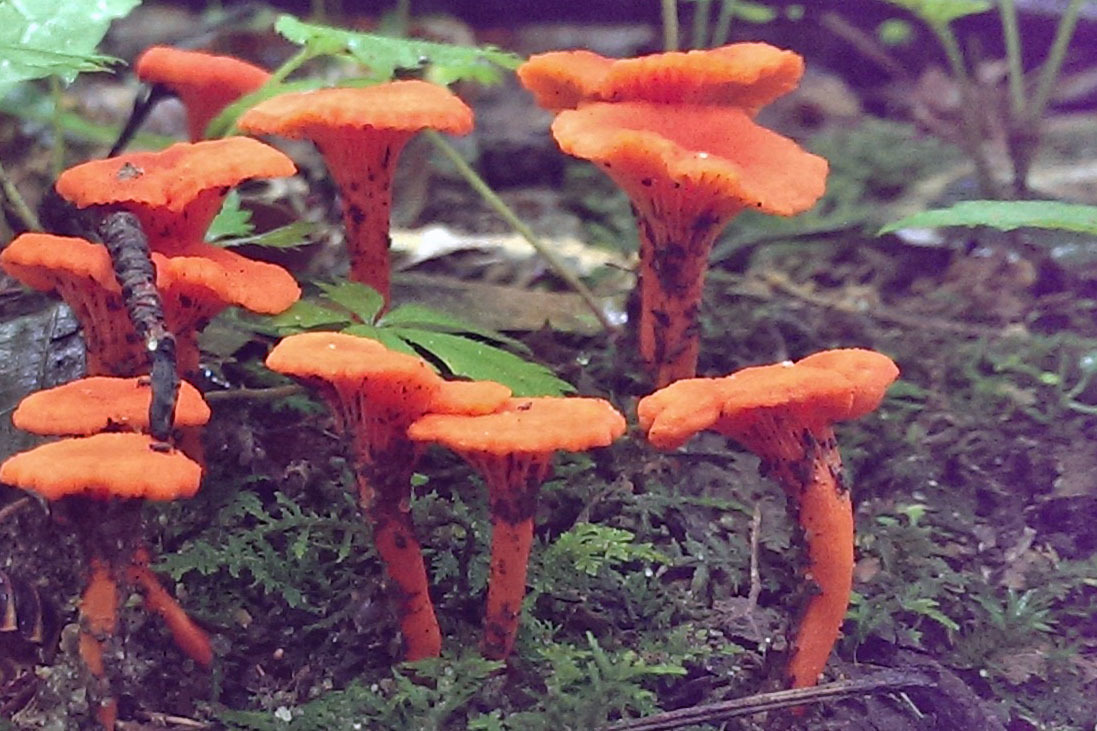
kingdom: Fungi
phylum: Basidiomycota
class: Agaricomycetes
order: Cantharellales
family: Hydnaceae
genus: Cantharellus
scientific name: Cantharellus cinnabarinus
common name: Cinnabar chanterelle
